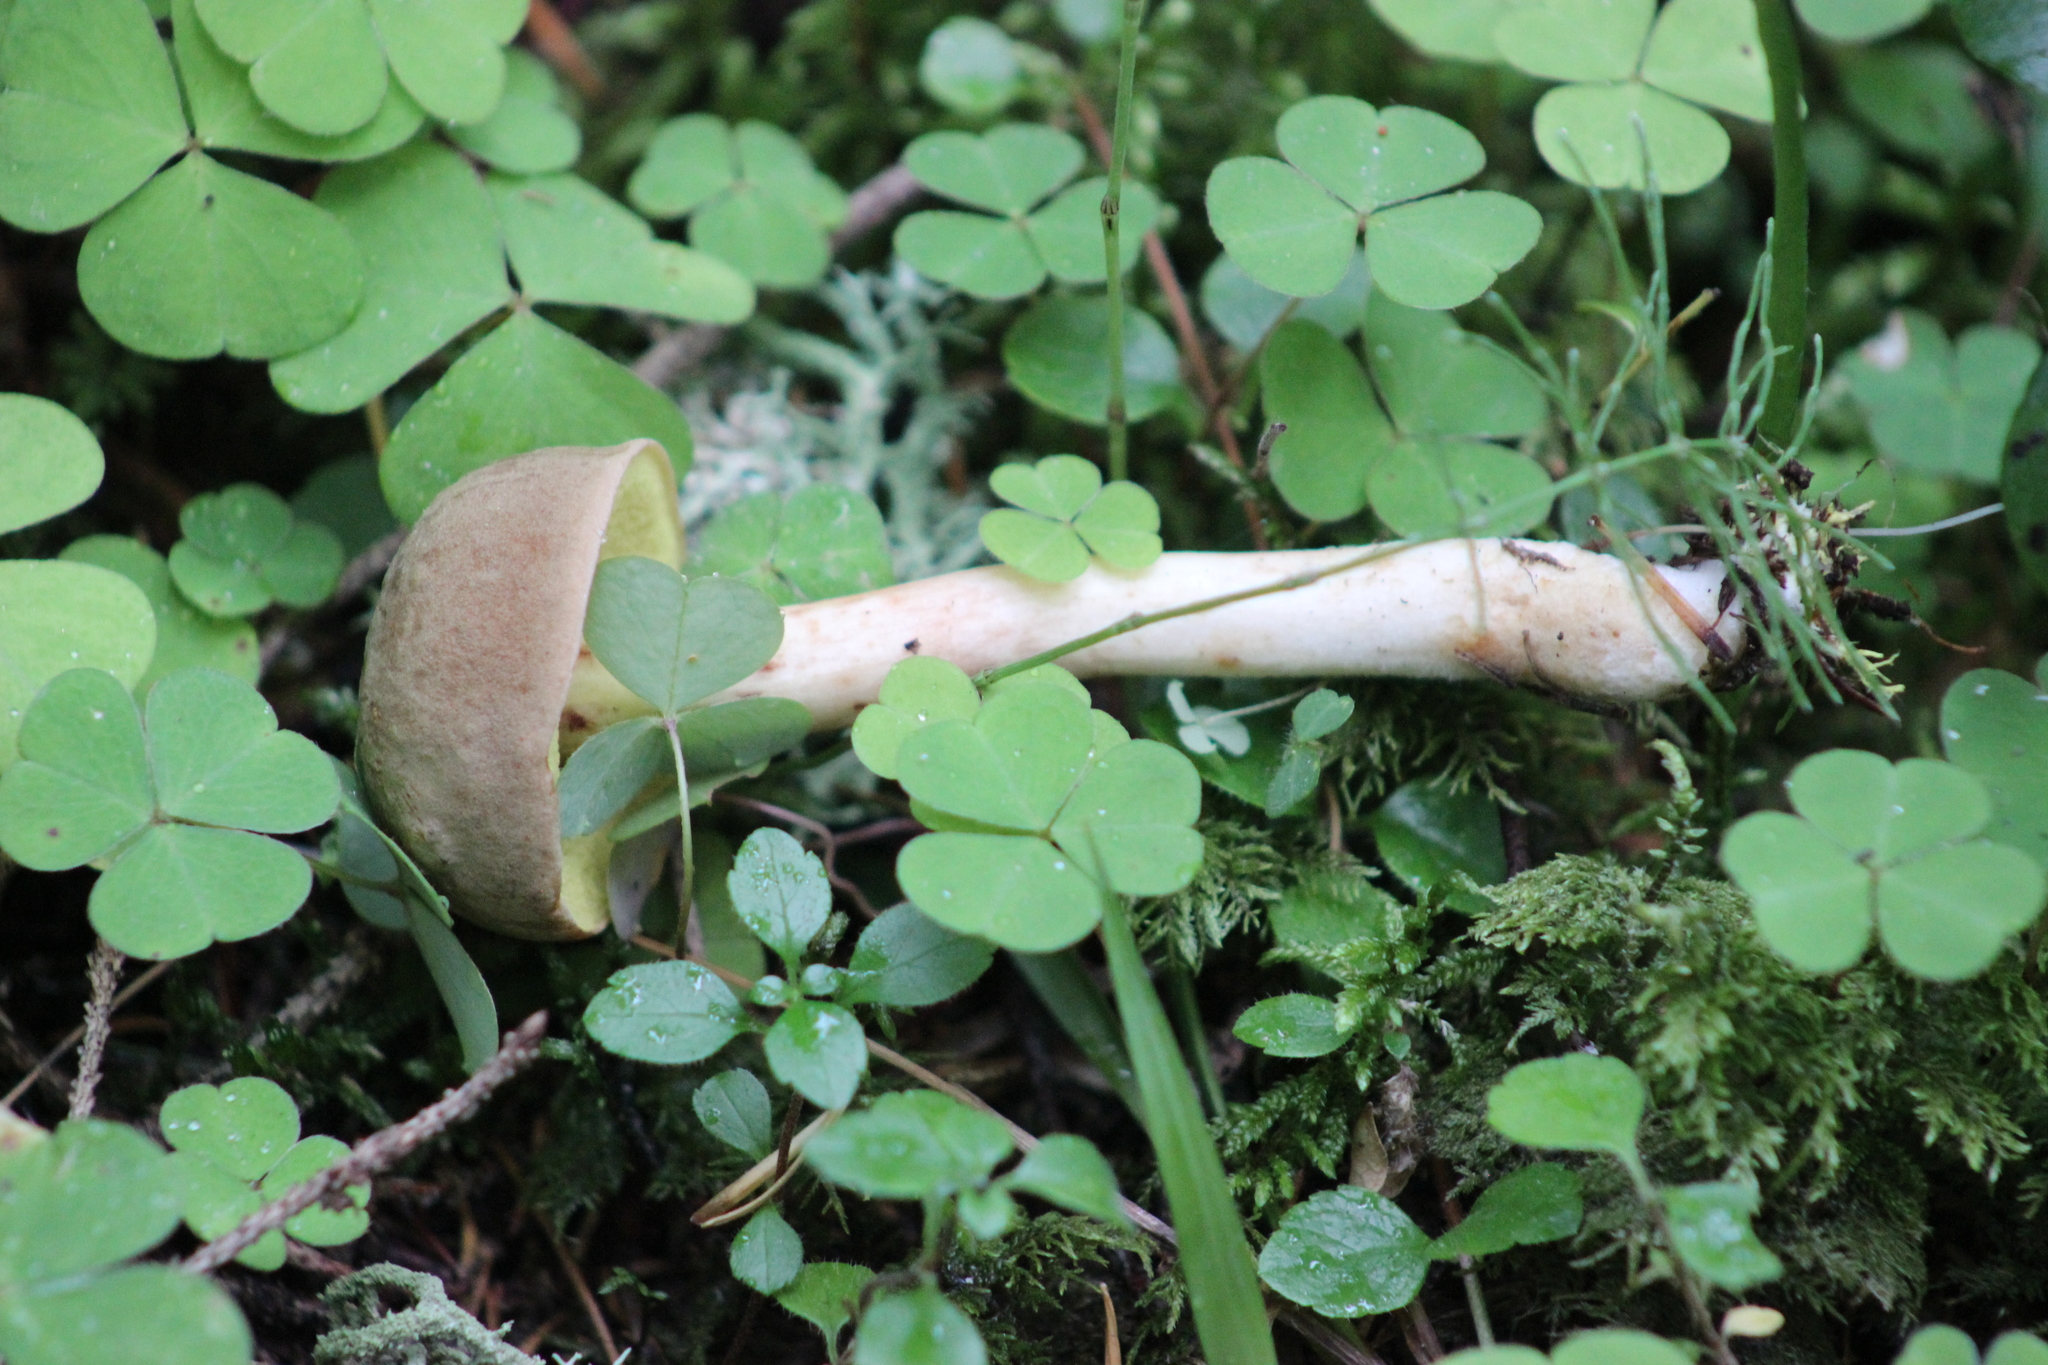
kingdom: Fungi
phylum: Basidiomycota
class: Agaricomycetes
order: Boletales
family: Boletaceae
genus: Xerocomus
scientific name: Xerocomus subtomentosus
